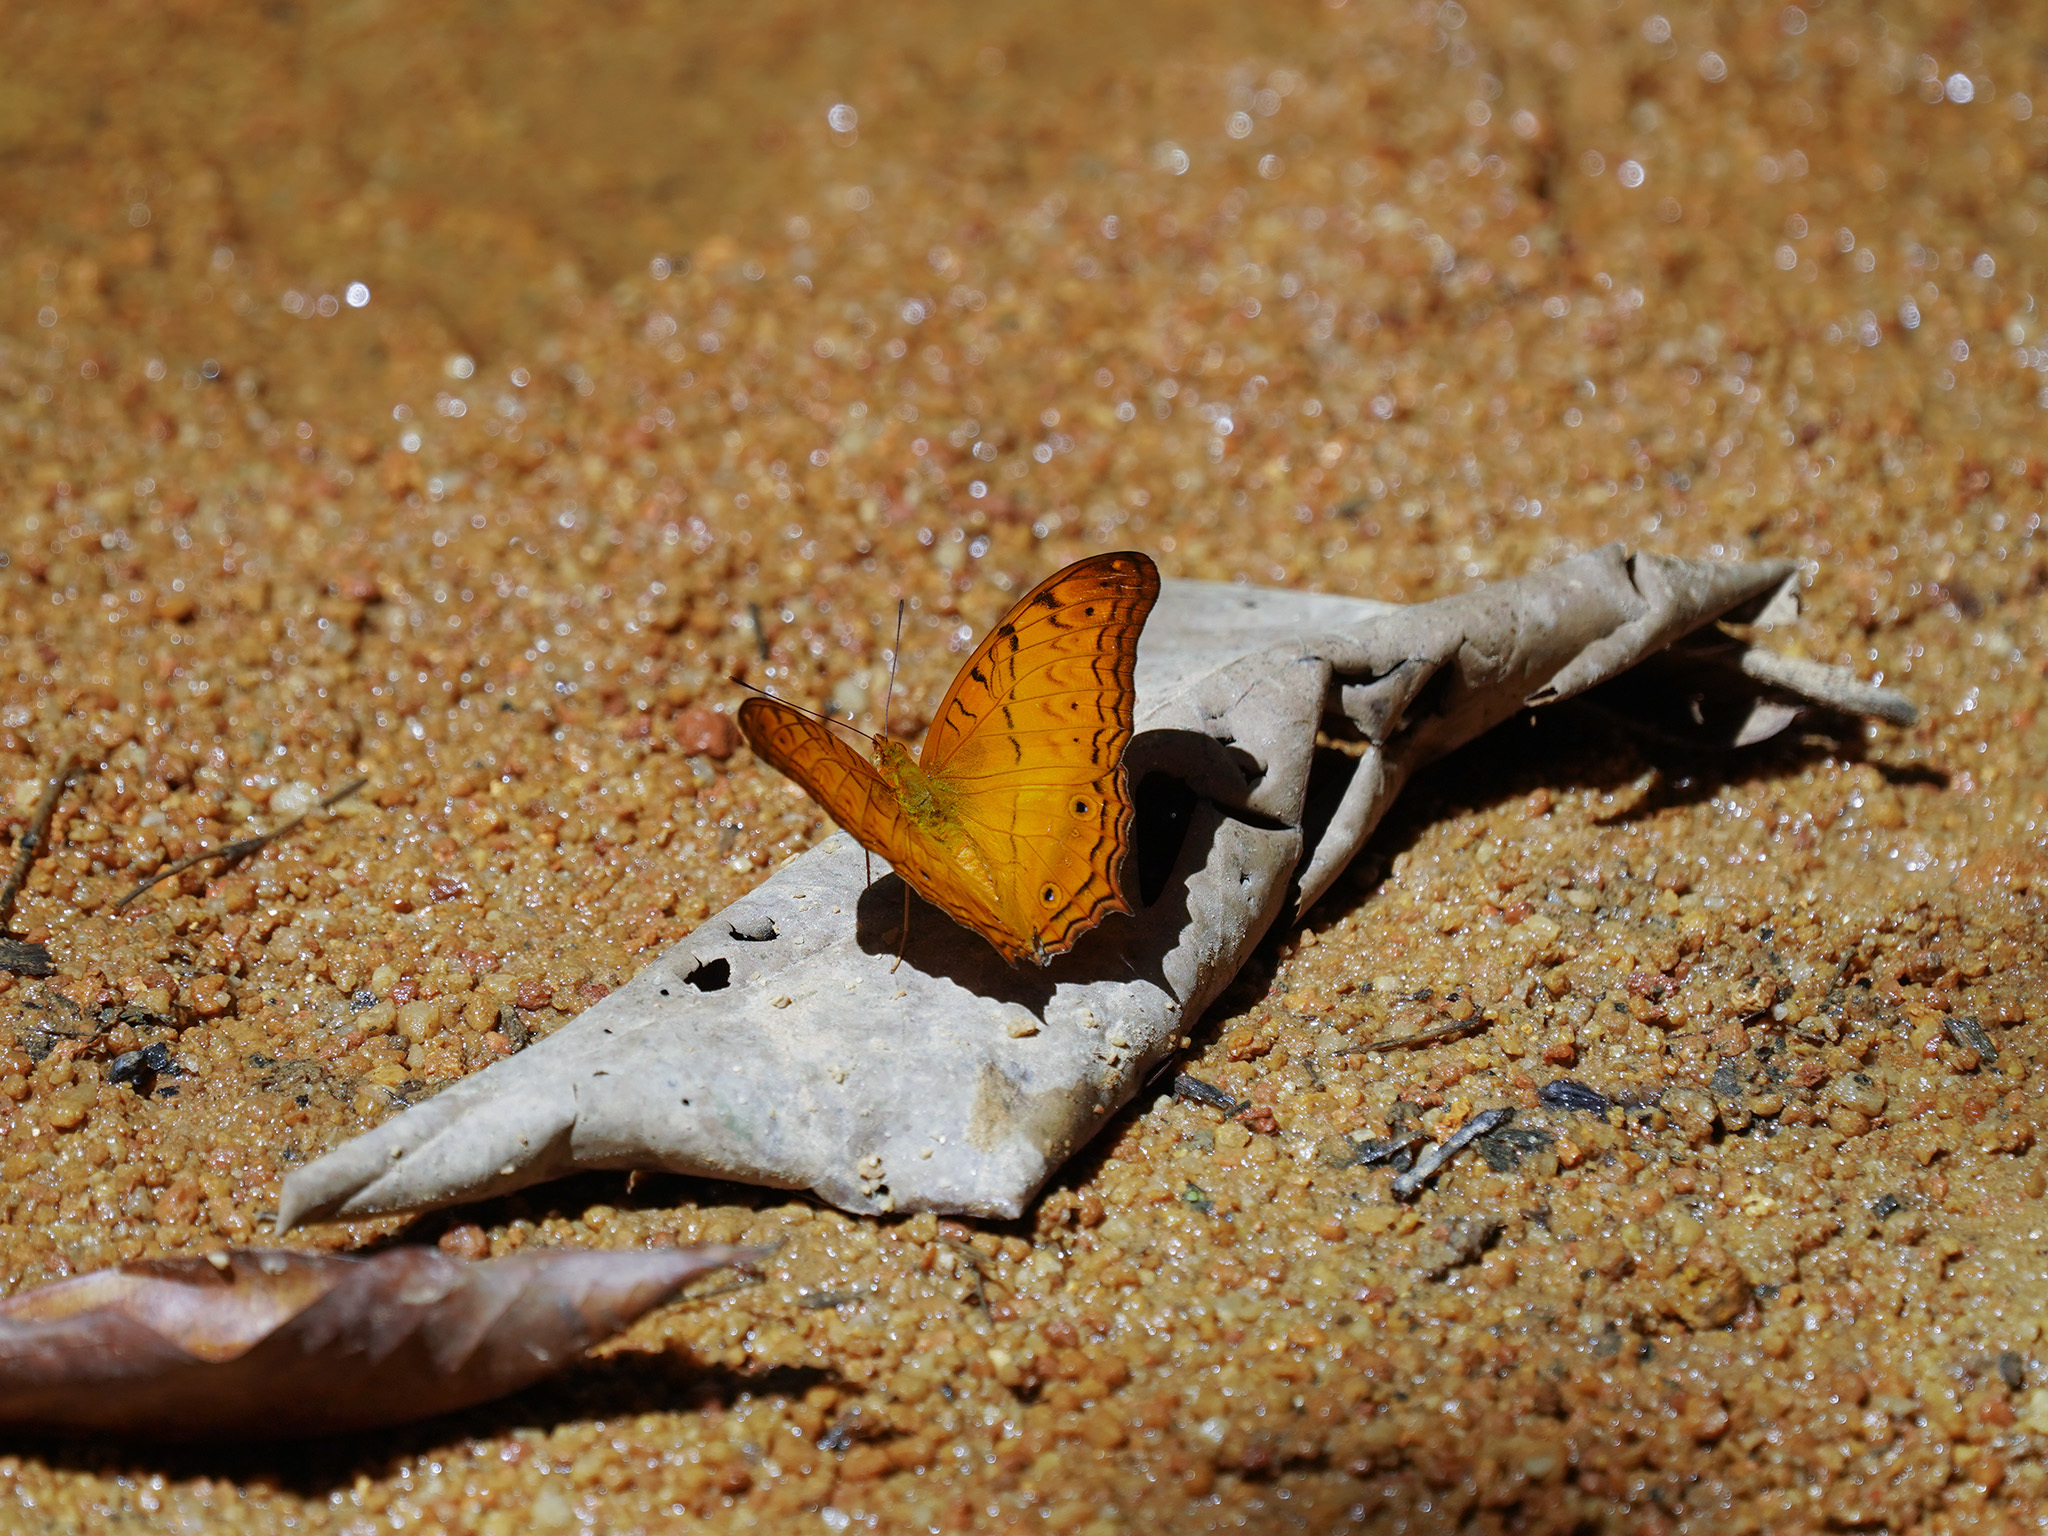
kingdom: Animalia
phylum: Arthropoda
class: Insecta
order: Lepidoptera
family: Nymphalidae
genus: Vindula
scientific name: Vindula deione
